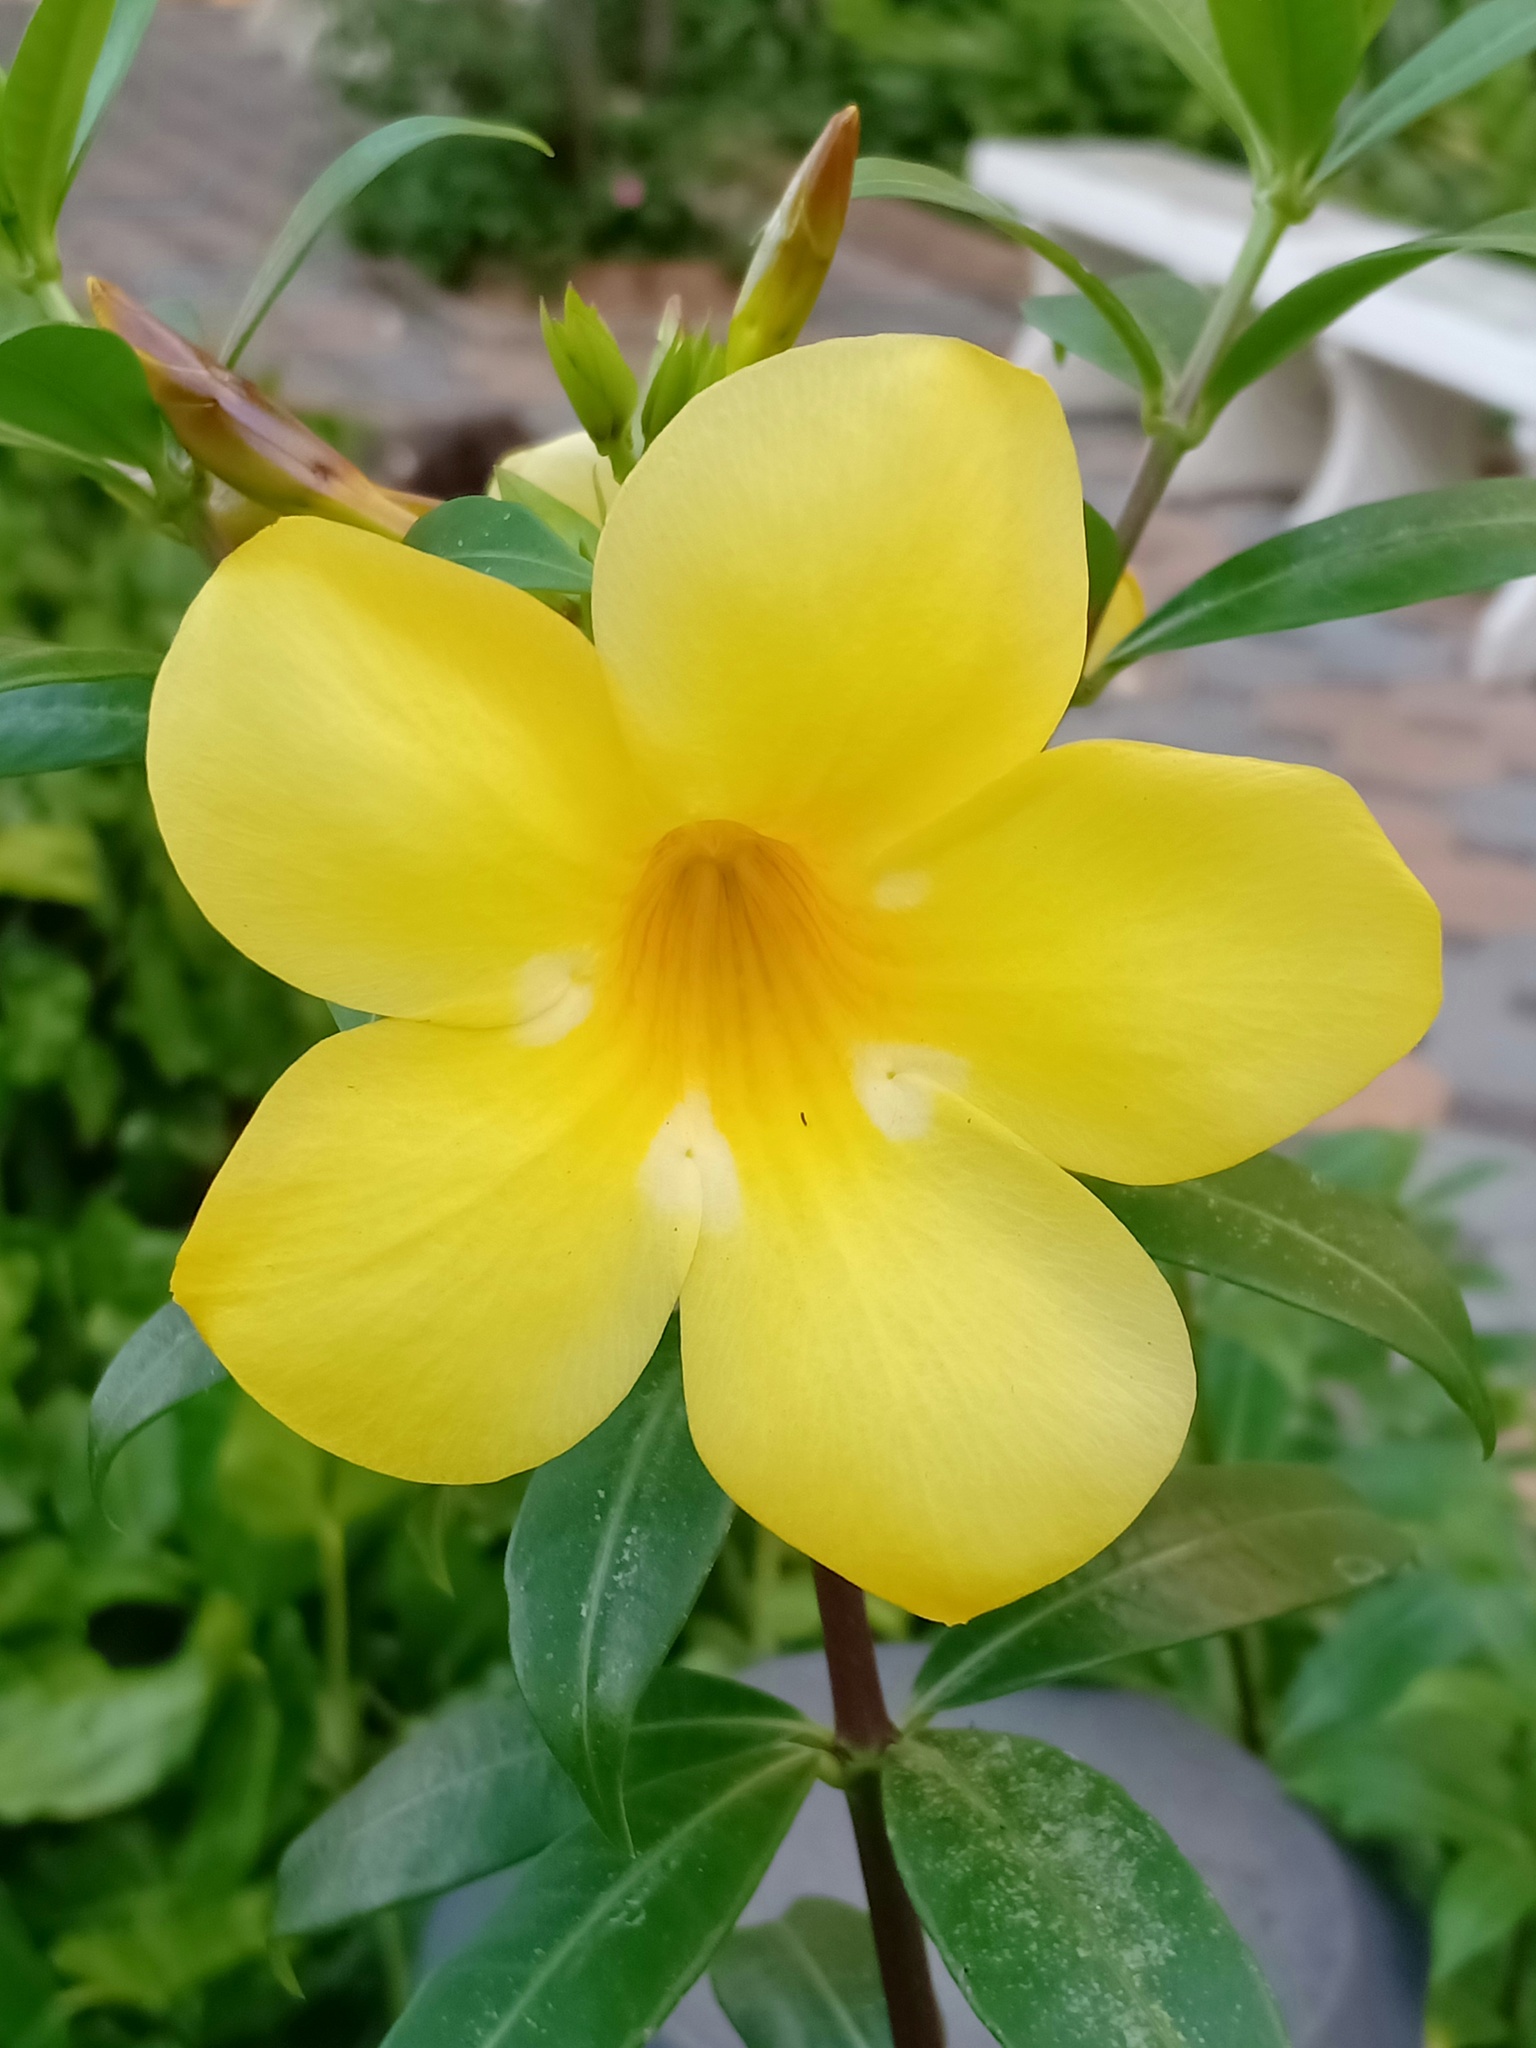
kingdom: Plantae
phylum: Tracheophyta
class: Magnoliopsida
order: Gentianales
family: Apocynaceae
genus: Allamanda
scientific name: Allamanda cathartica
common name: Golden trumpet
